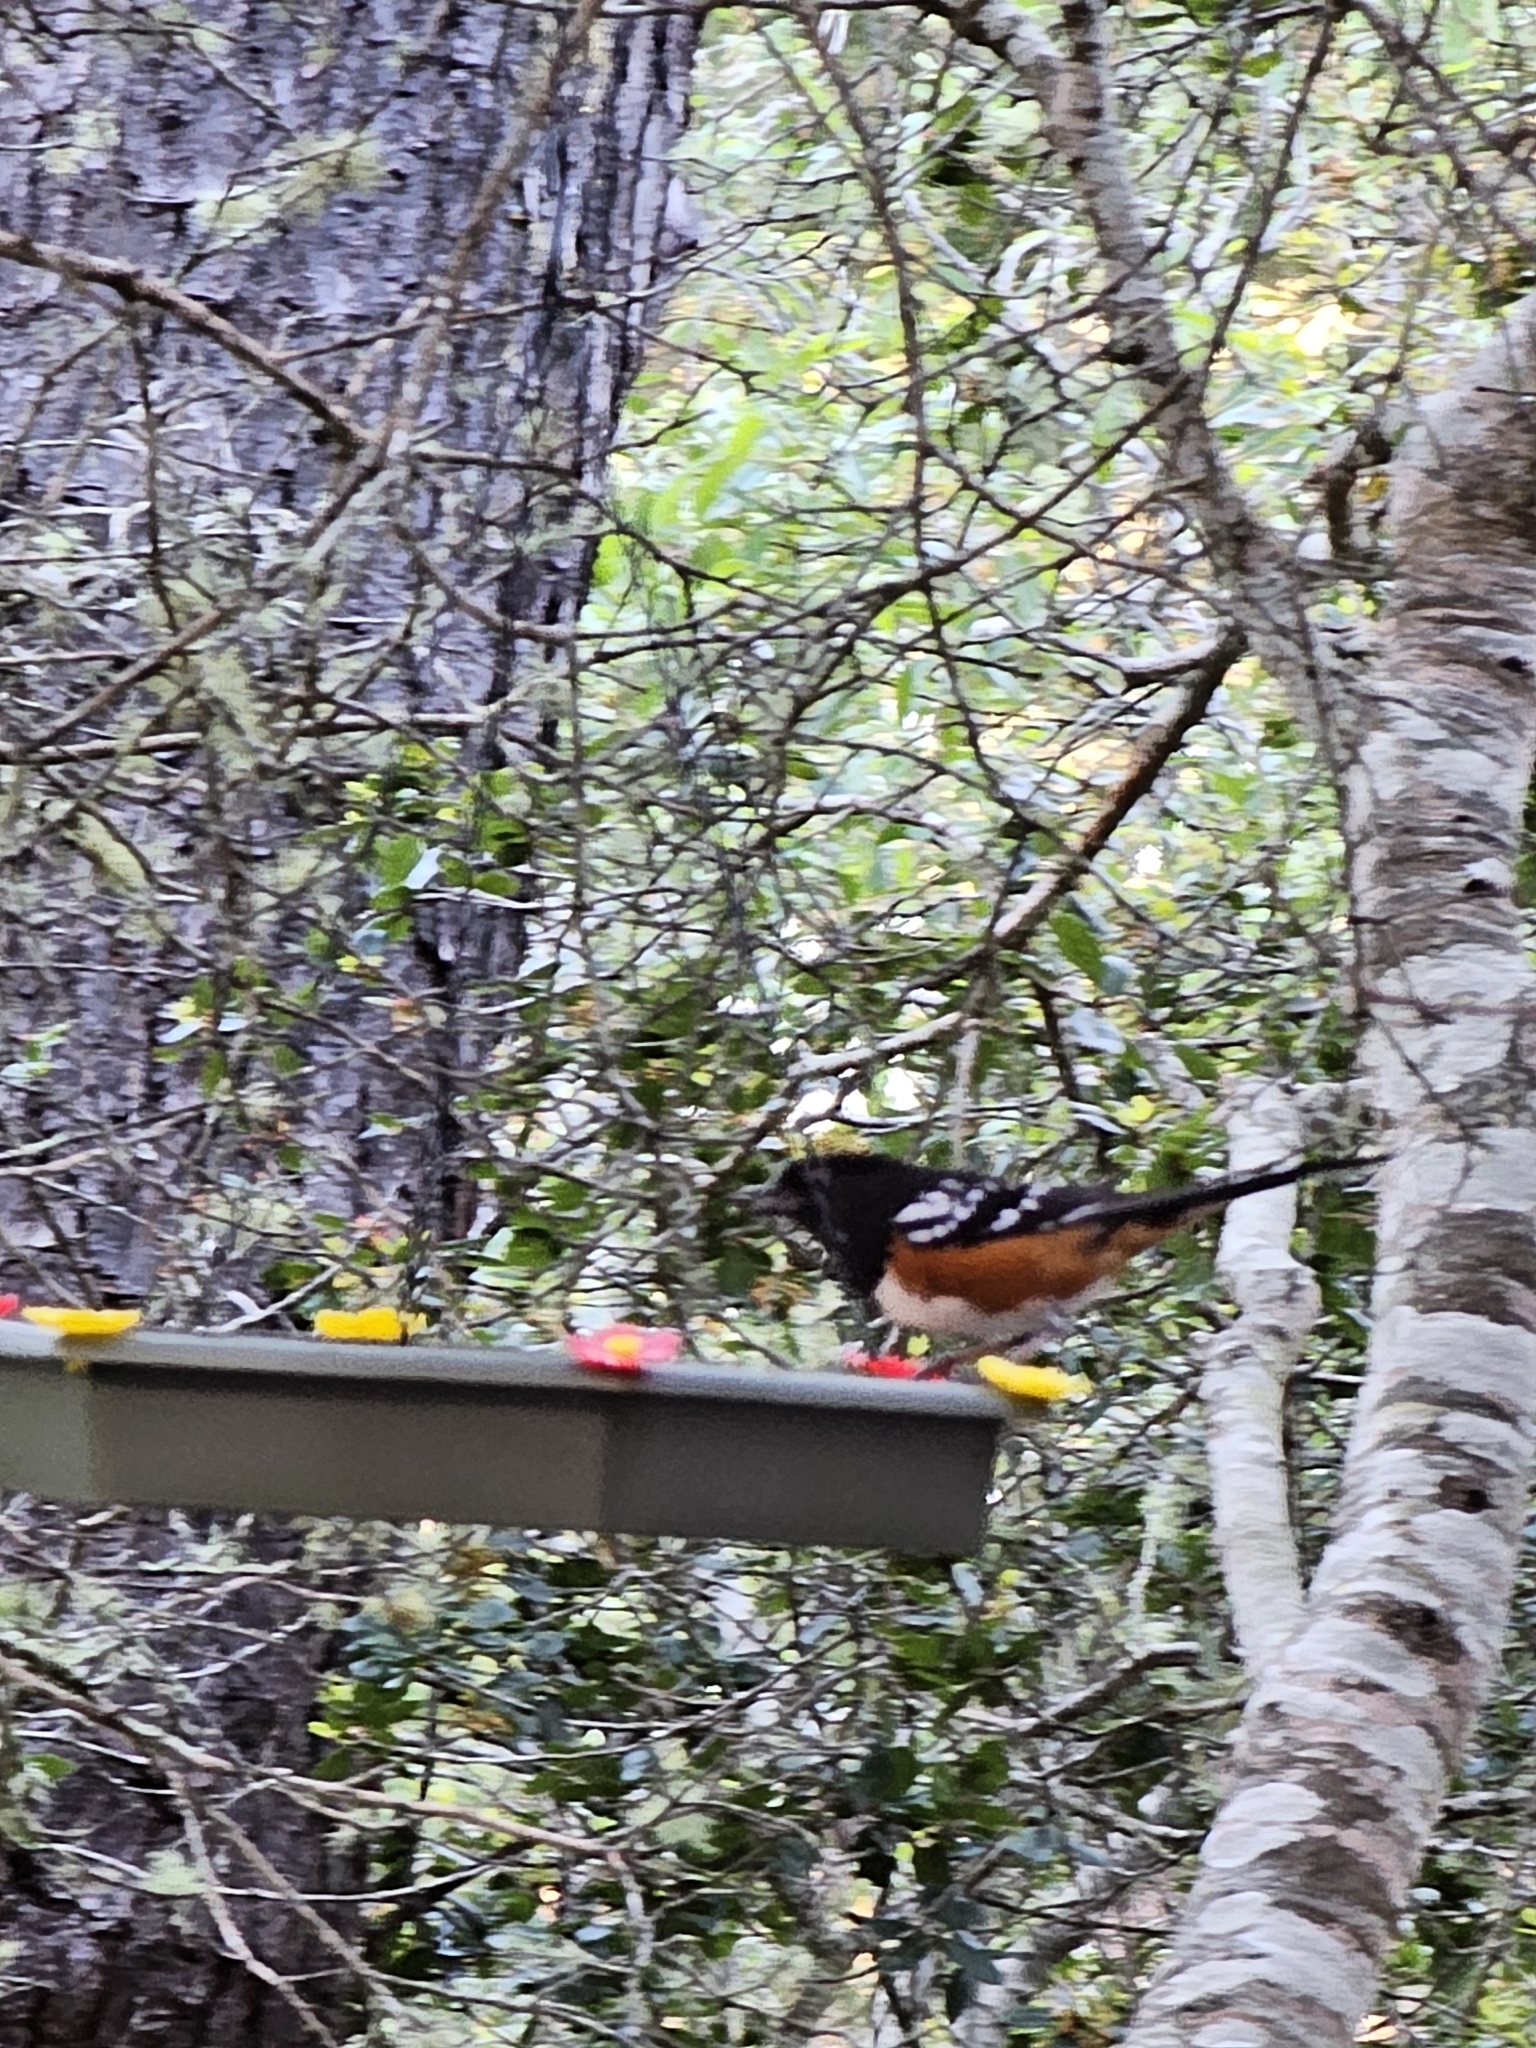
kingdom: Animalia
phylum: Chordata
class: Aves
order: Passeriformes
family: Passerellidae
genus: Pipilo
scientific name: Pipilo maculatus
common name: Spotted towhee
